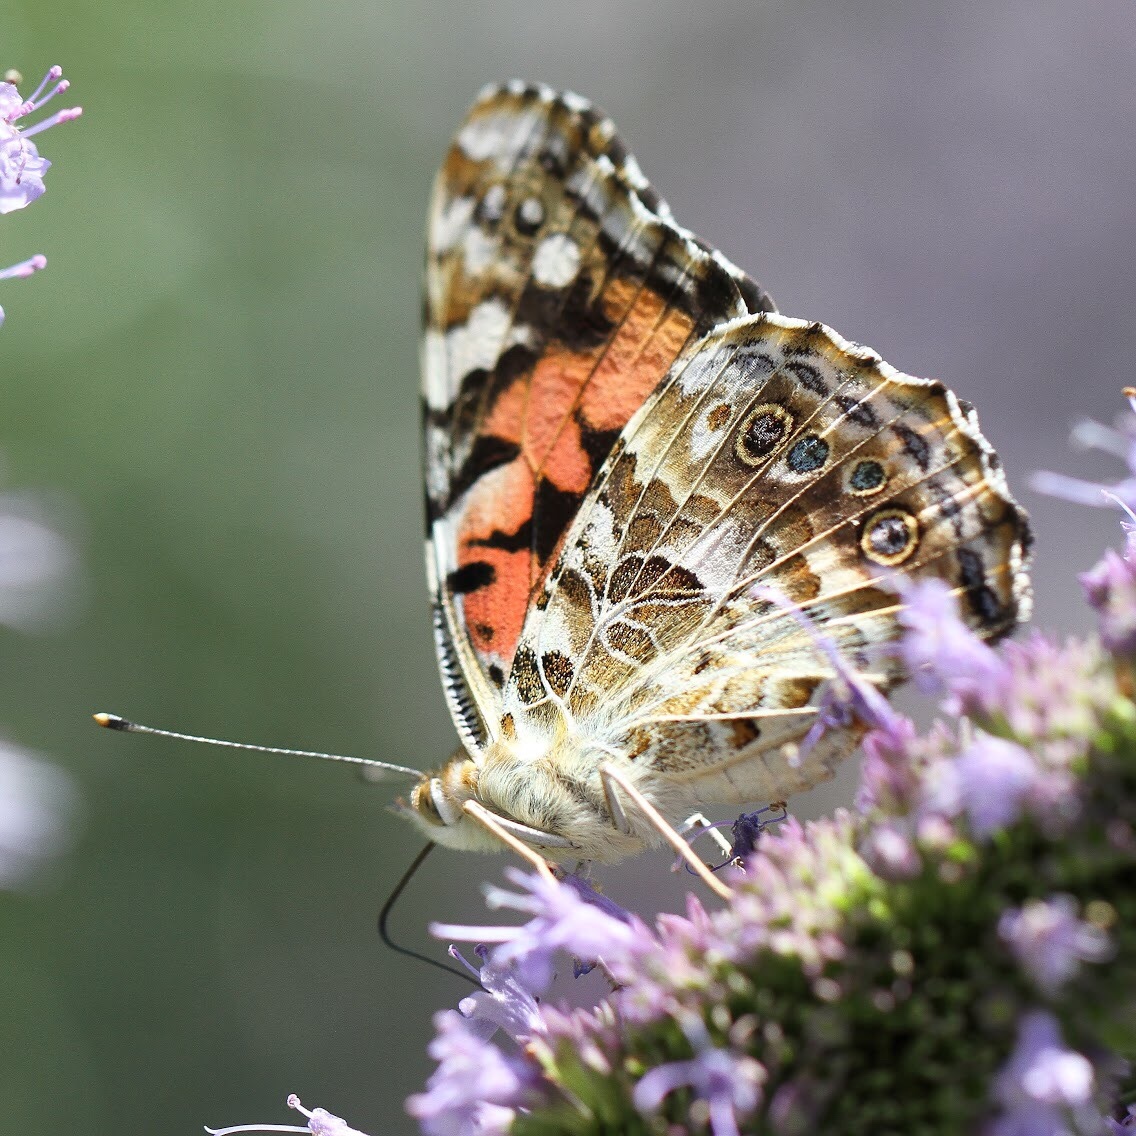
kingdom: Animalia
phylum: Arthropoda
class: Insecta
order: Lepidoptera
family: Nymphalidae
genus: Vanessa
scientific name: Vanessa cardui
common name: Painted lady
